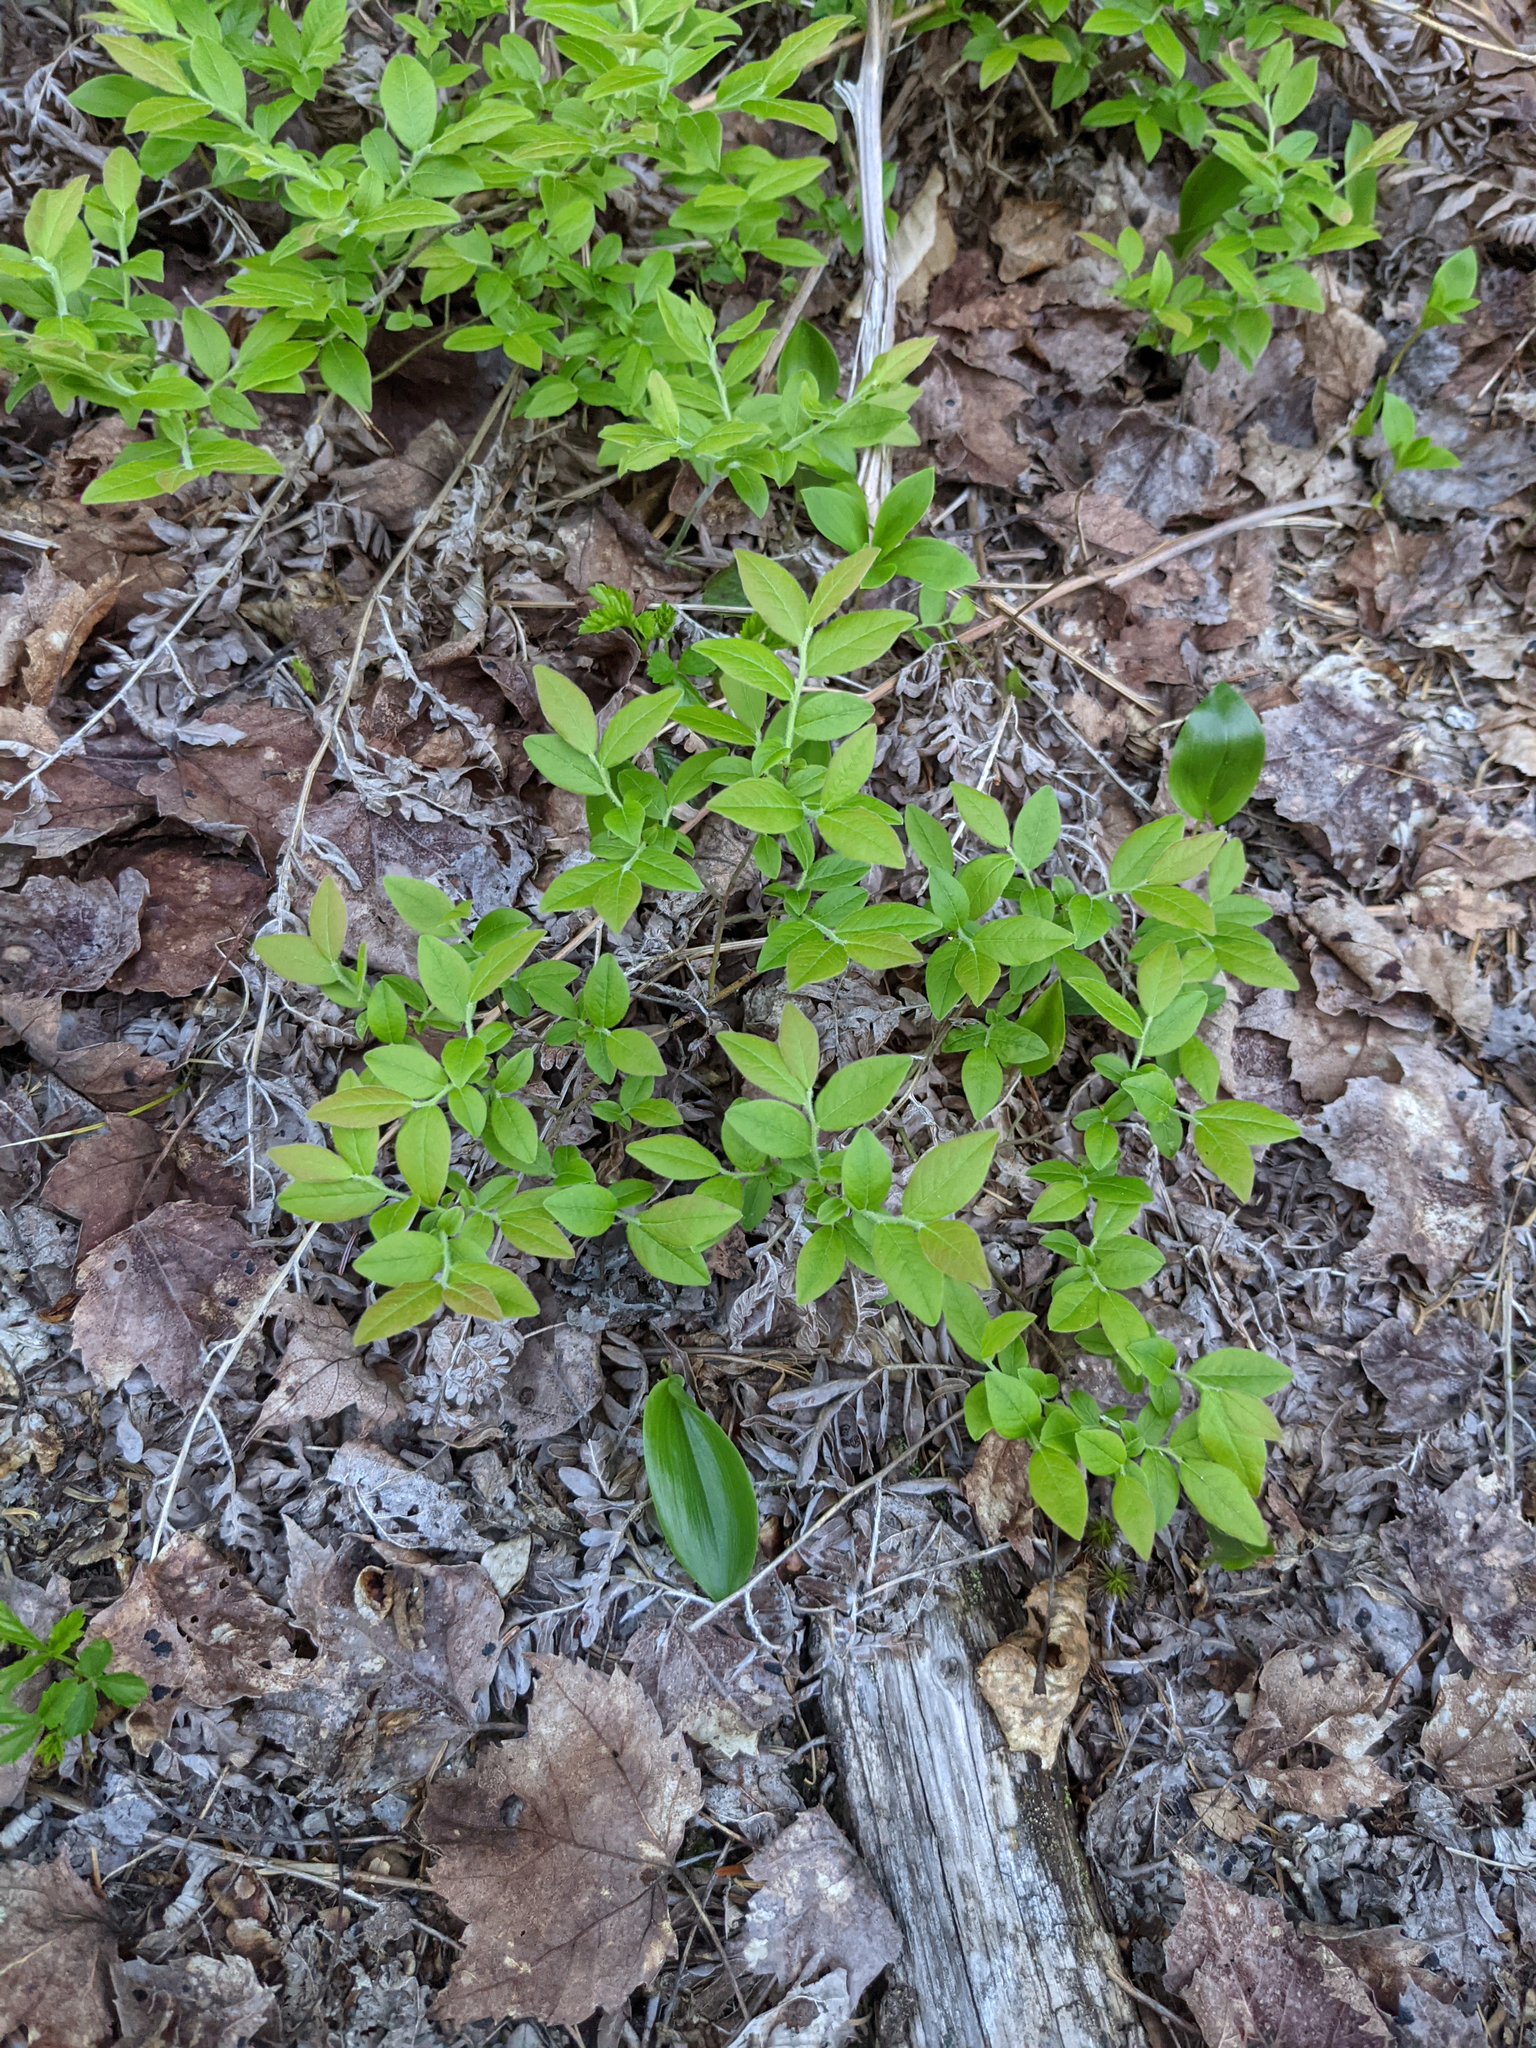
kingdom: Plantae
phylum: Tracheophyta
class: Magnoliopsida
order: Ericales
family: Ericaceae
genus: Vaccinium
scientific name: Vaccinium myrtilloides
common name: Canada blueberry
